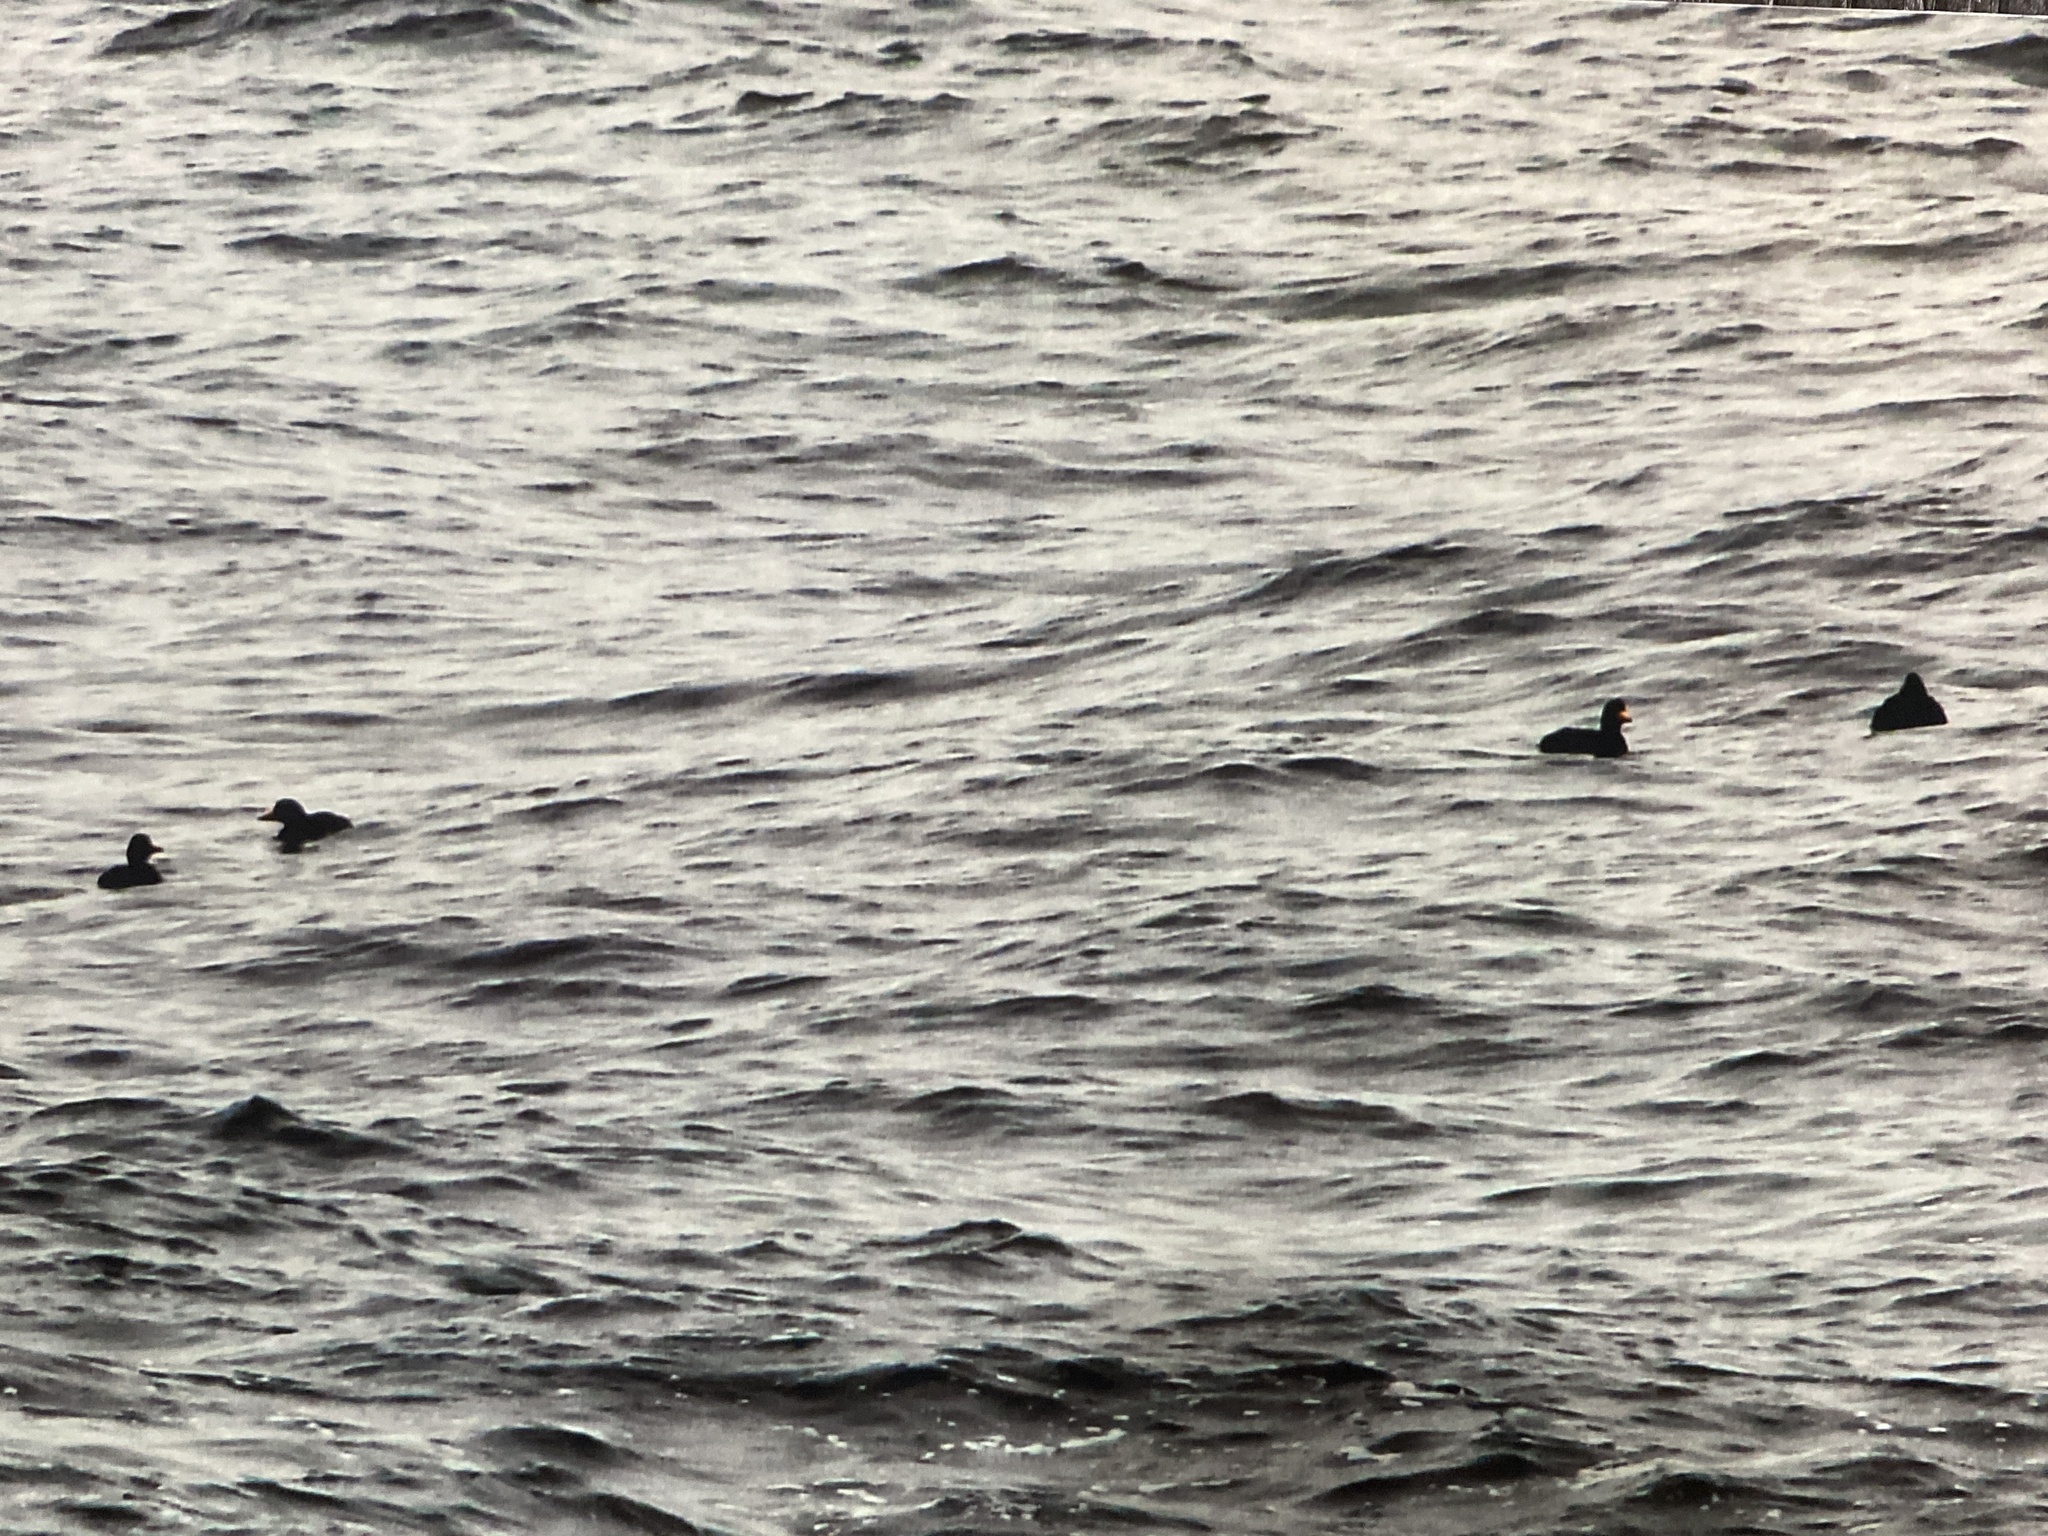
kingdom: Animalia
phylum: Chordata
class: Aves
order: Anseriformes
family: Anatidae
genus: Melanitta
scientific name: Melanitta americana
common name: Black scoter
